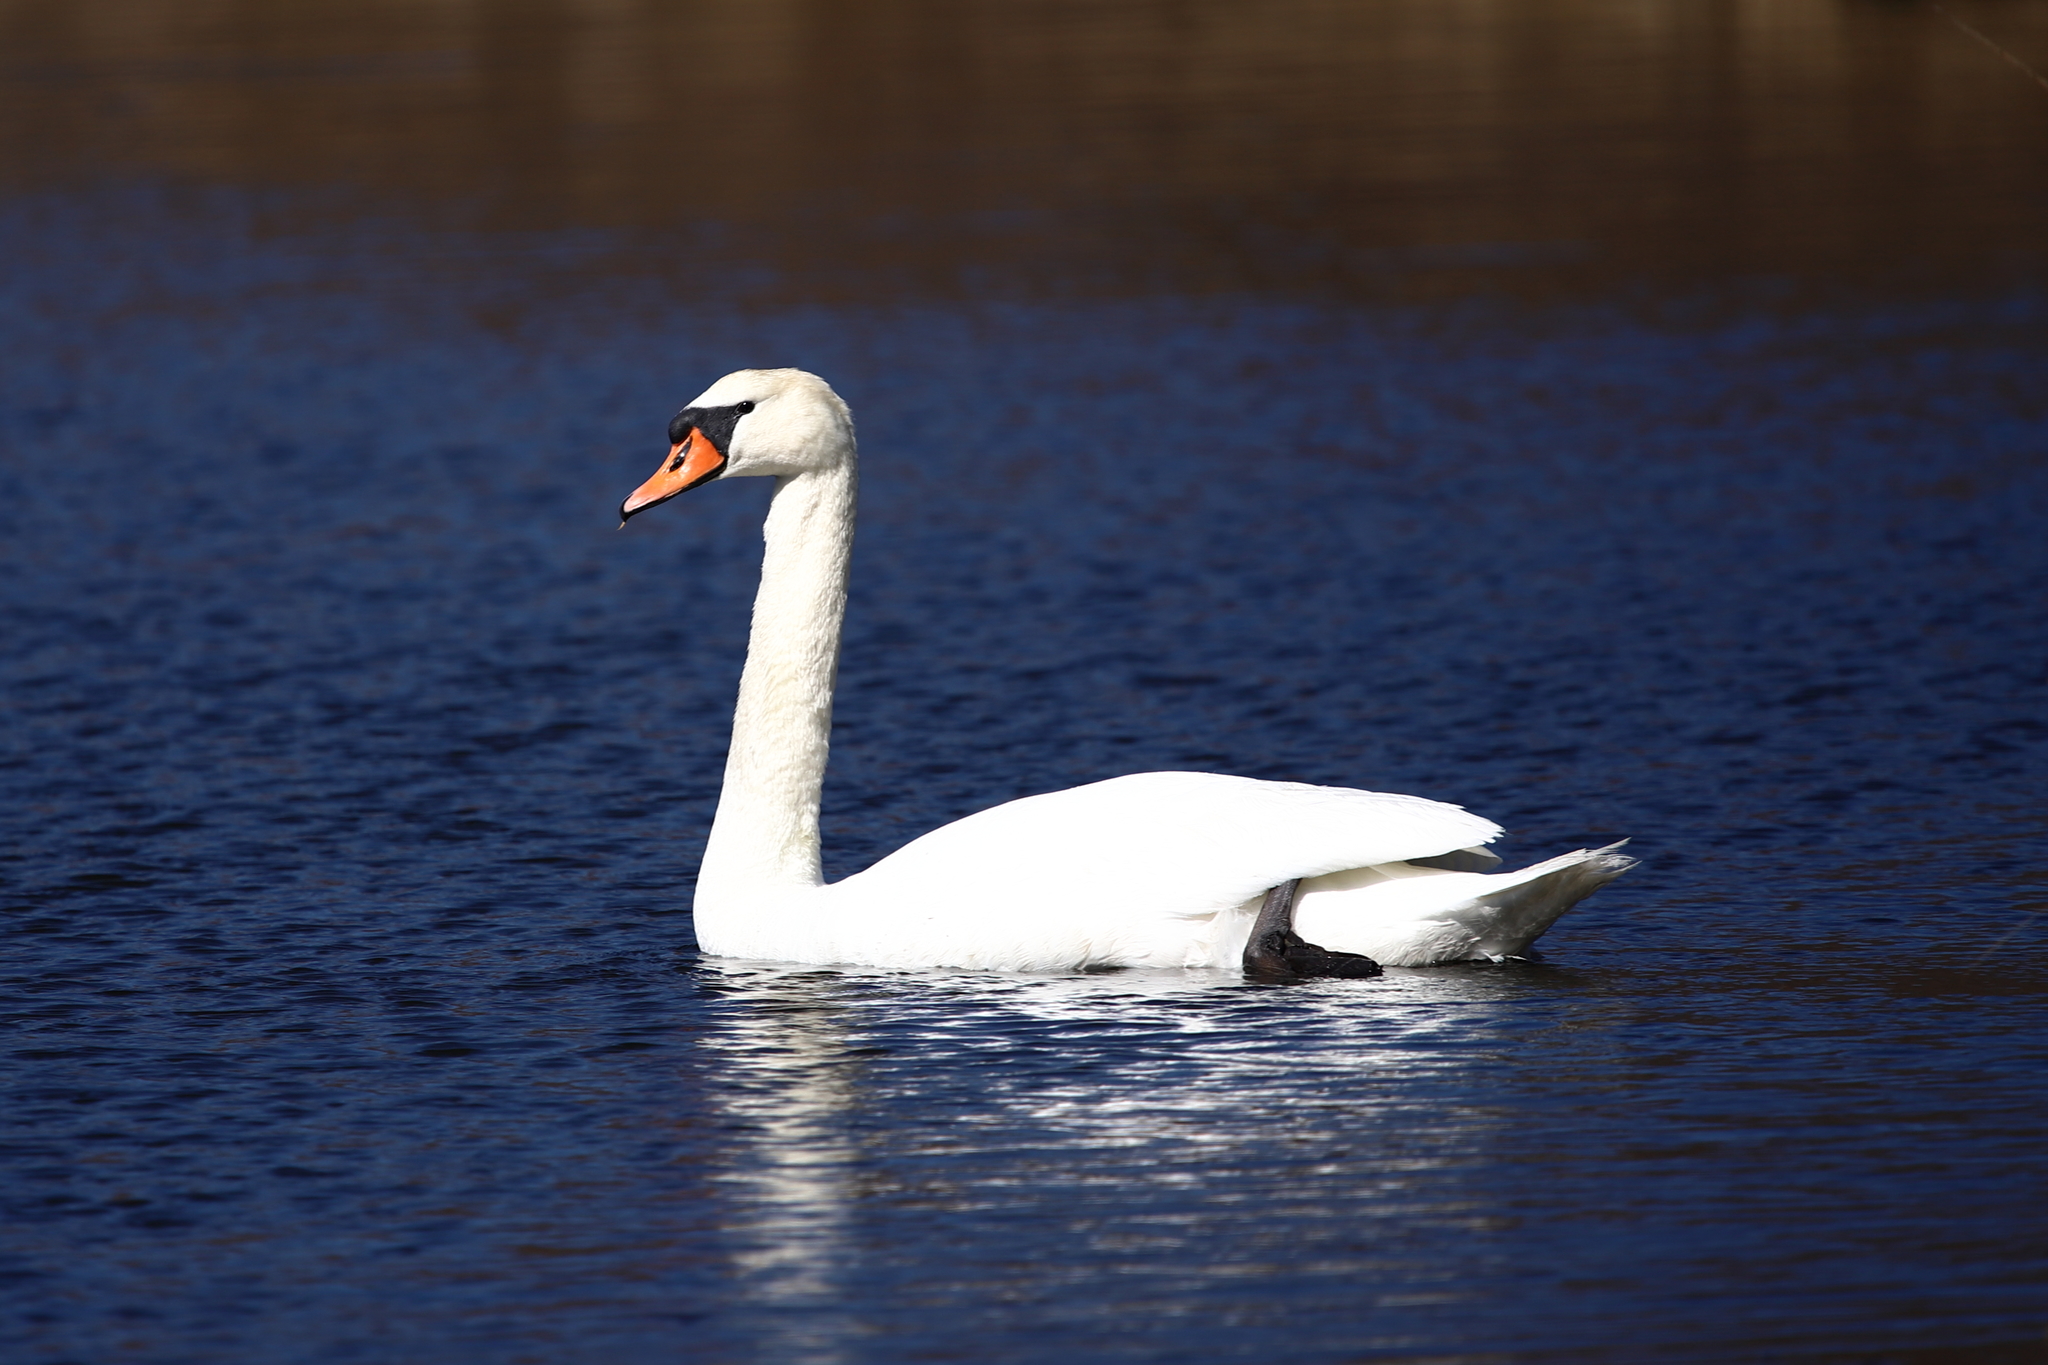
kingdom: Animalia
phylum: Chordata
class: Aves
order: Anseriformes
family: Anatidae
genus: Cygnus
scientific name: Cygnus olor
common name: Mute swan
